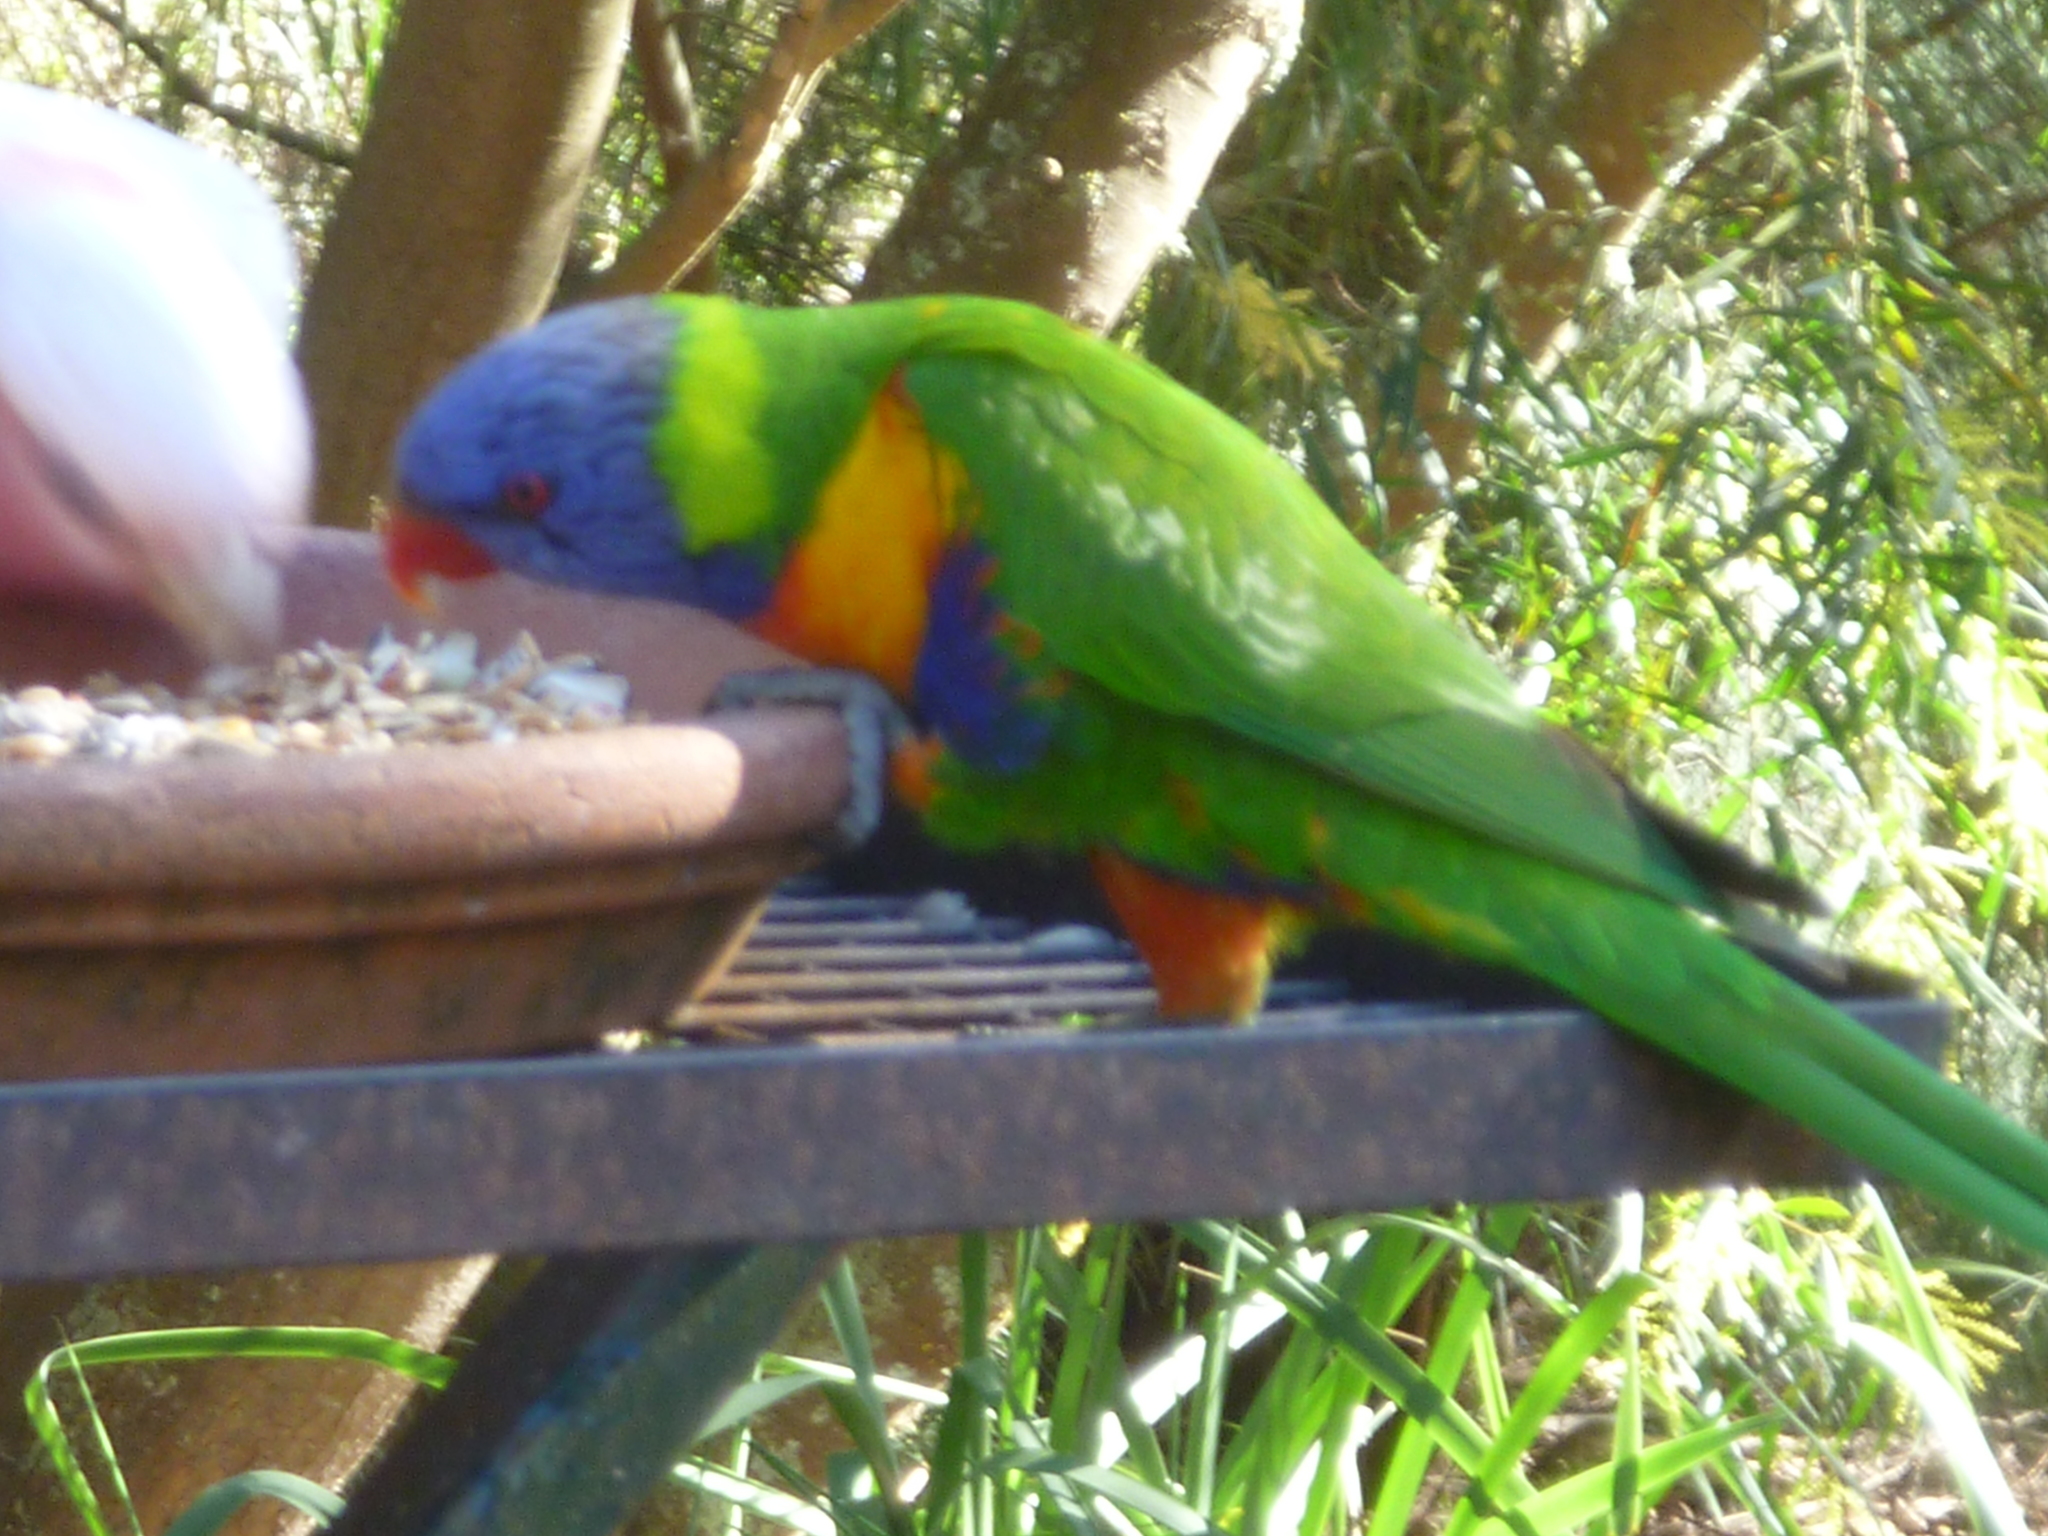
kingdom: Animalia
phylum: Chordata
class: Aves
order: Psittaciformes
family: Psittacidae
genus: Trichoglossus
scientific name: Trichoglossus haematodus
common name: Coconut lorikeet
